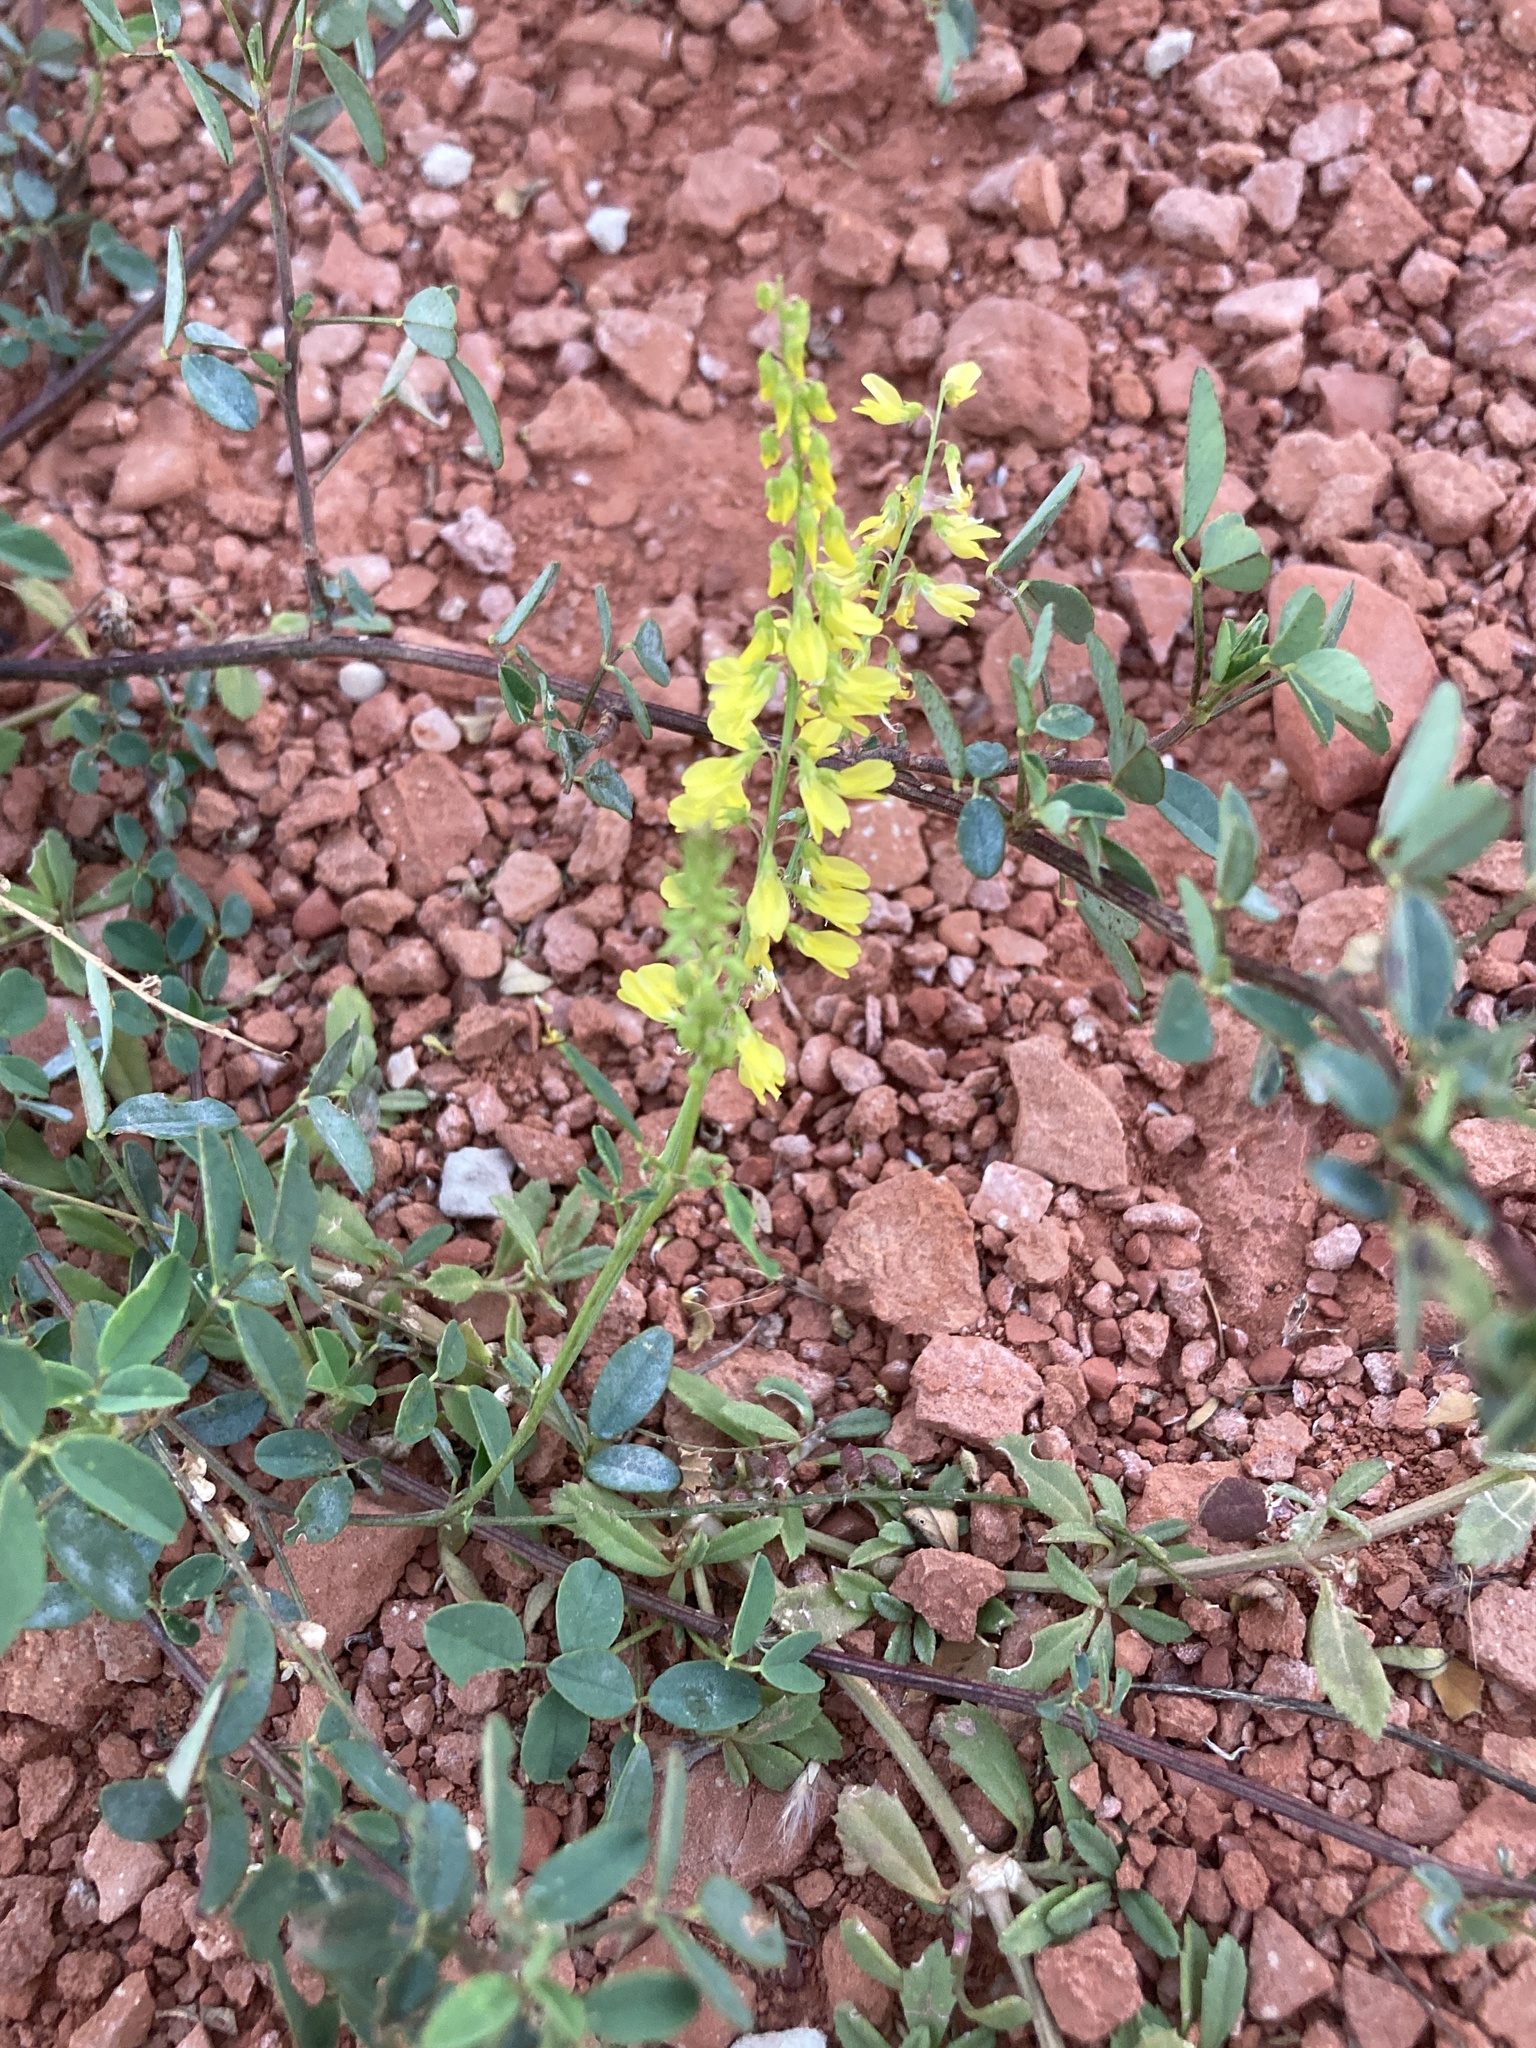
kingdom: Plantae
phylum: Tracheophyta
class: Magnoliopsida
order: Fabales
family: Fabaceae
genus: Melilotus
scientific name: Melilotus officinalis
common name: Sweetclover
